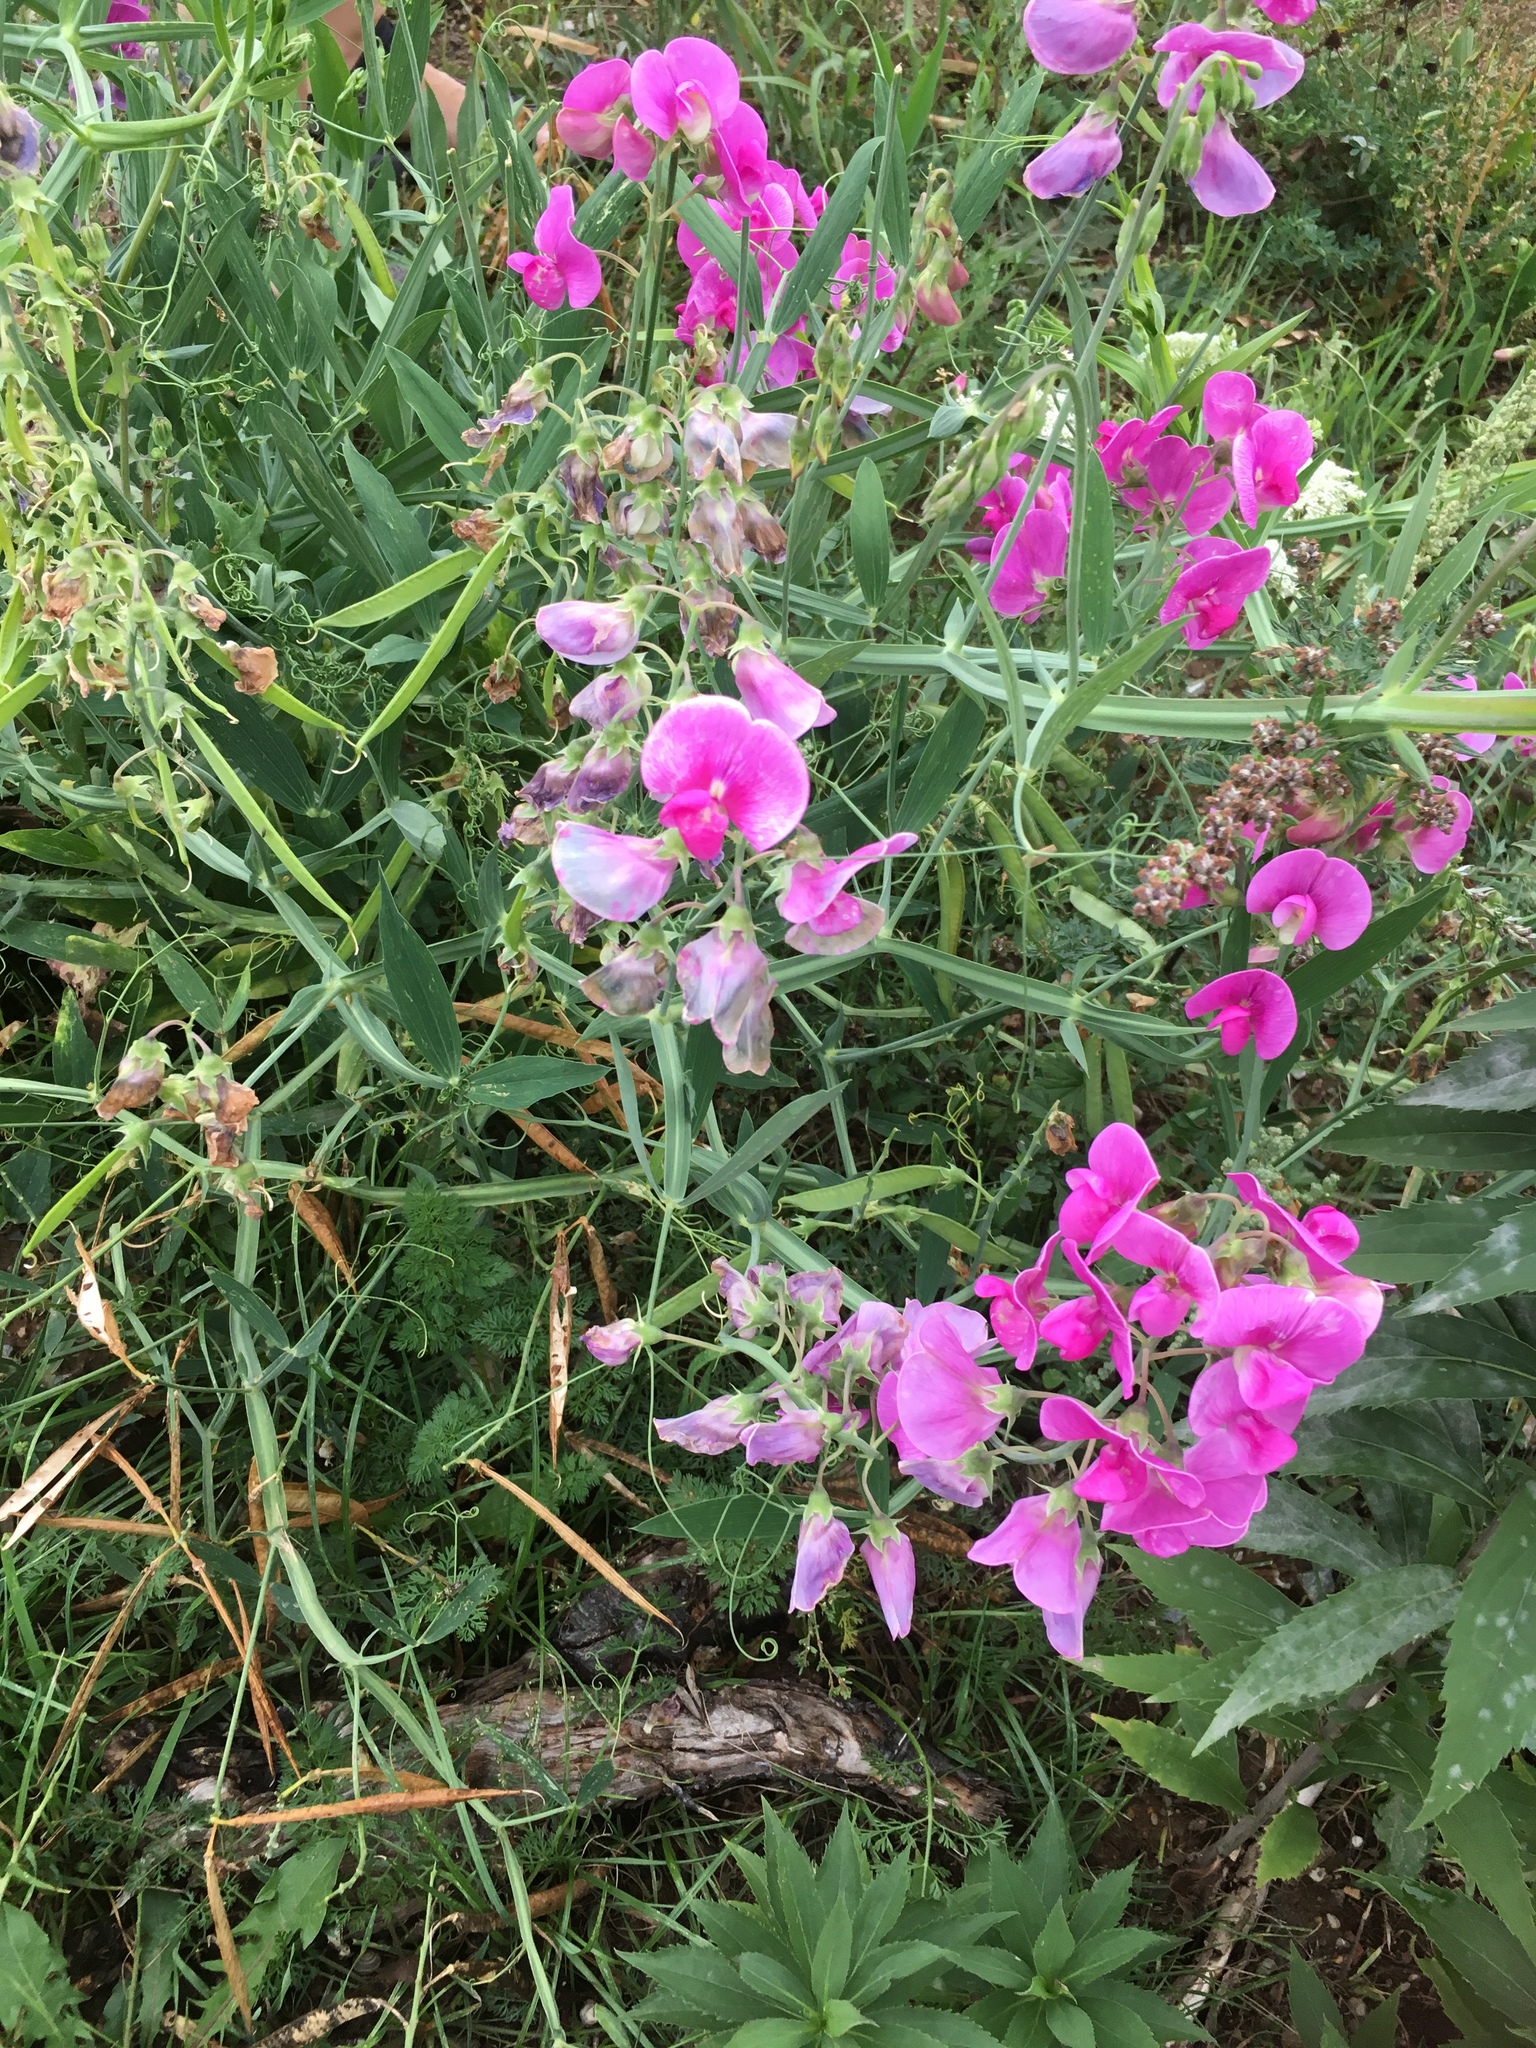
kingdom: Plantae
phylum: Tracheophyta
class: Magnoliopsida
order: Fabales
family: Fabaceae
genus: Lathyrus
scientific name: Lathyrus latifolius
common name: Perennial pea
